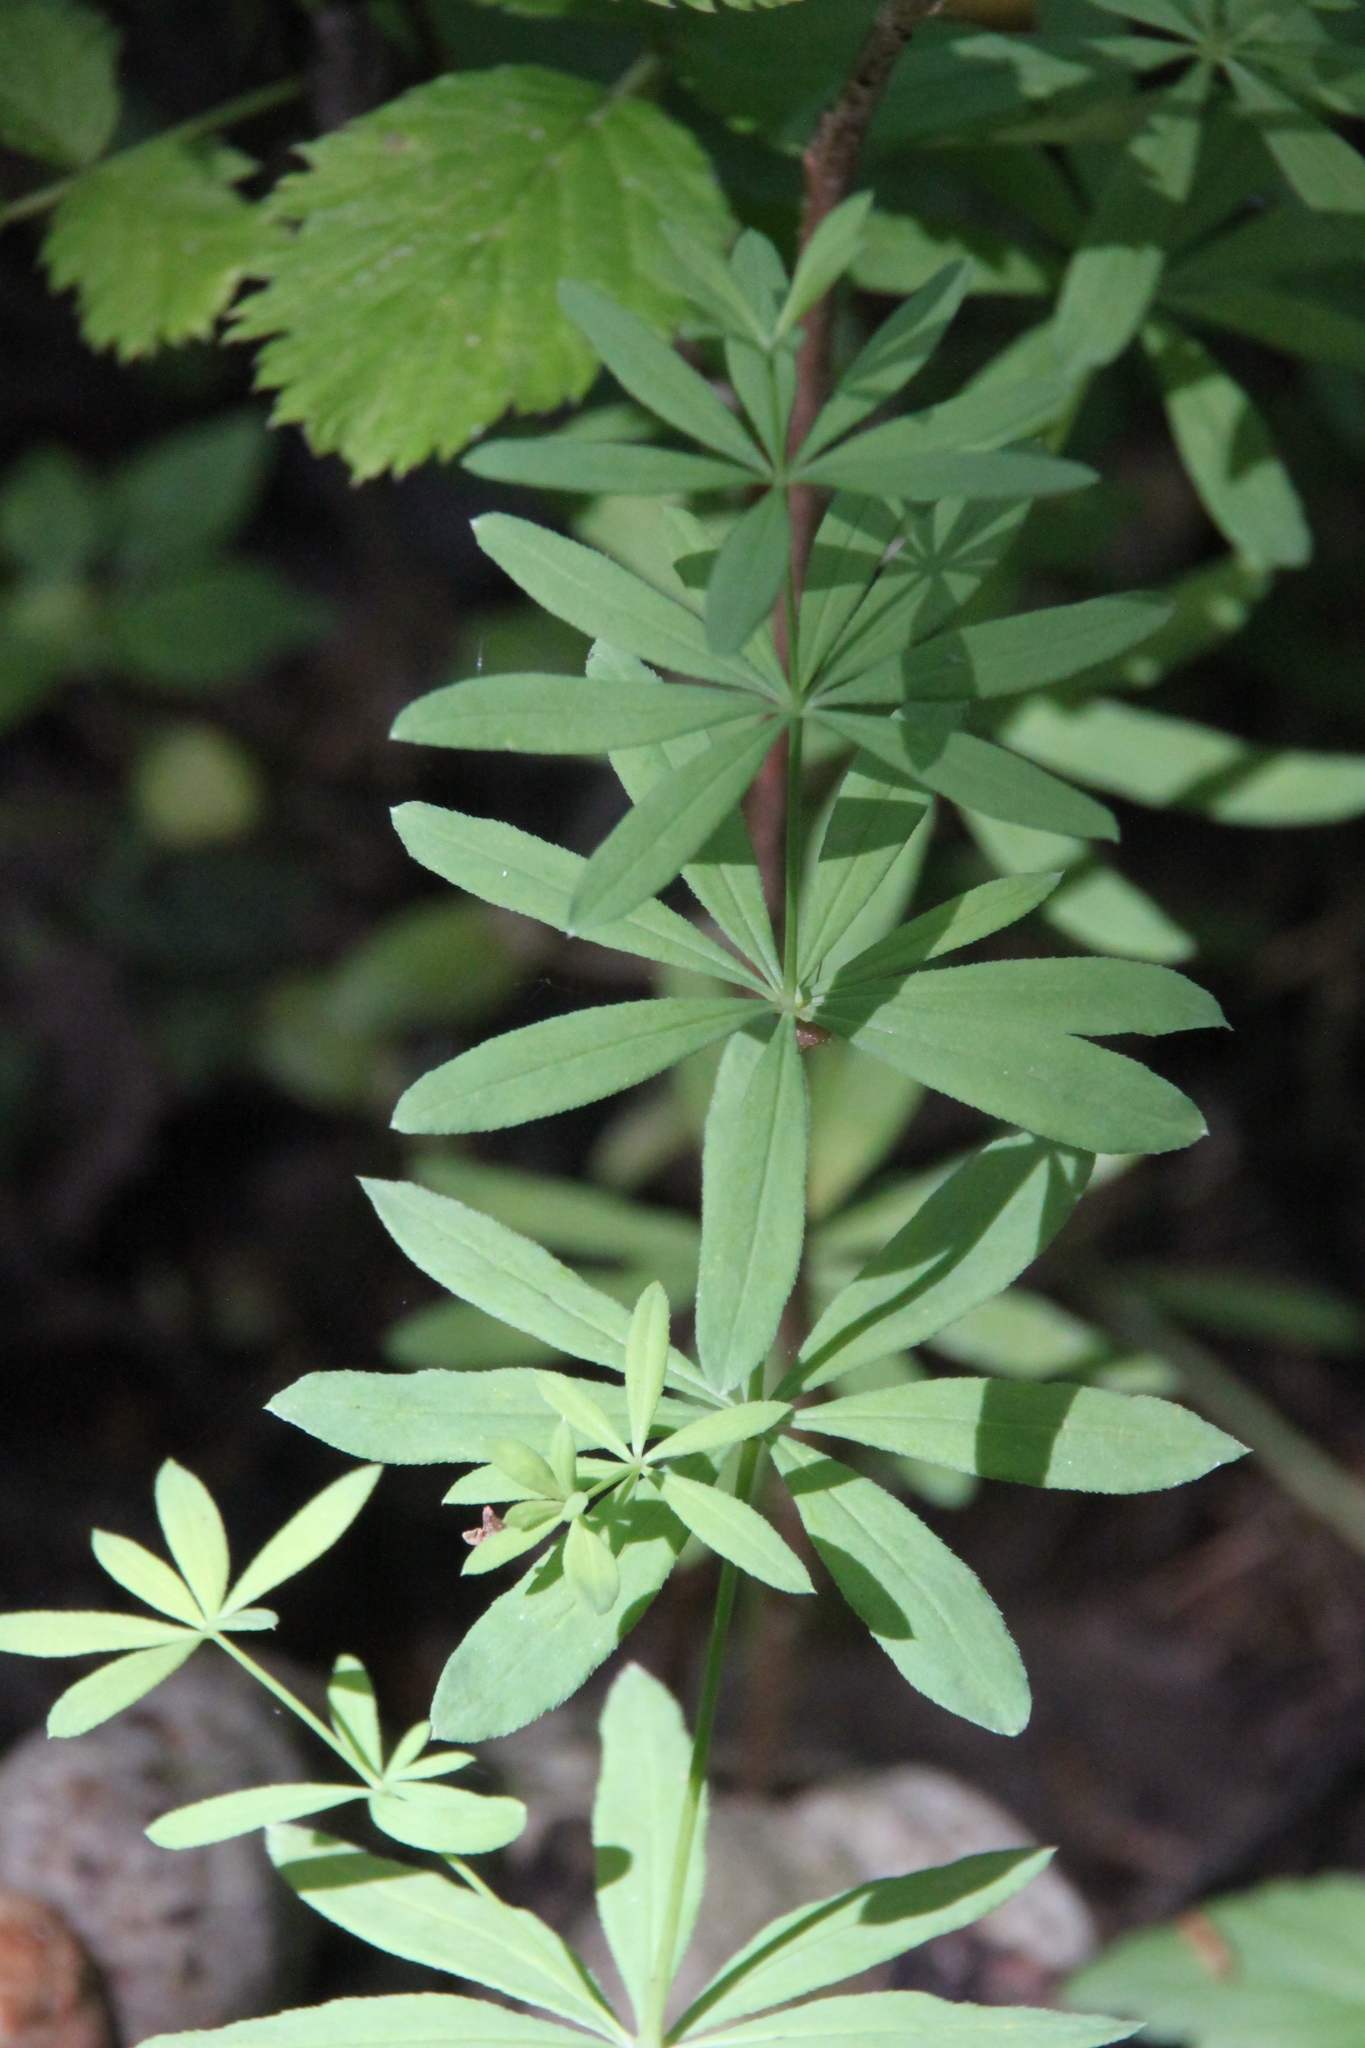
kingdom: Plantae
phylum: Tracheophyta
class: Magnoliopsida
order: Gentianales
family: Rubiaceae
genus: Galium
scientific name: Galium intermedium
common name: Bedstraw
